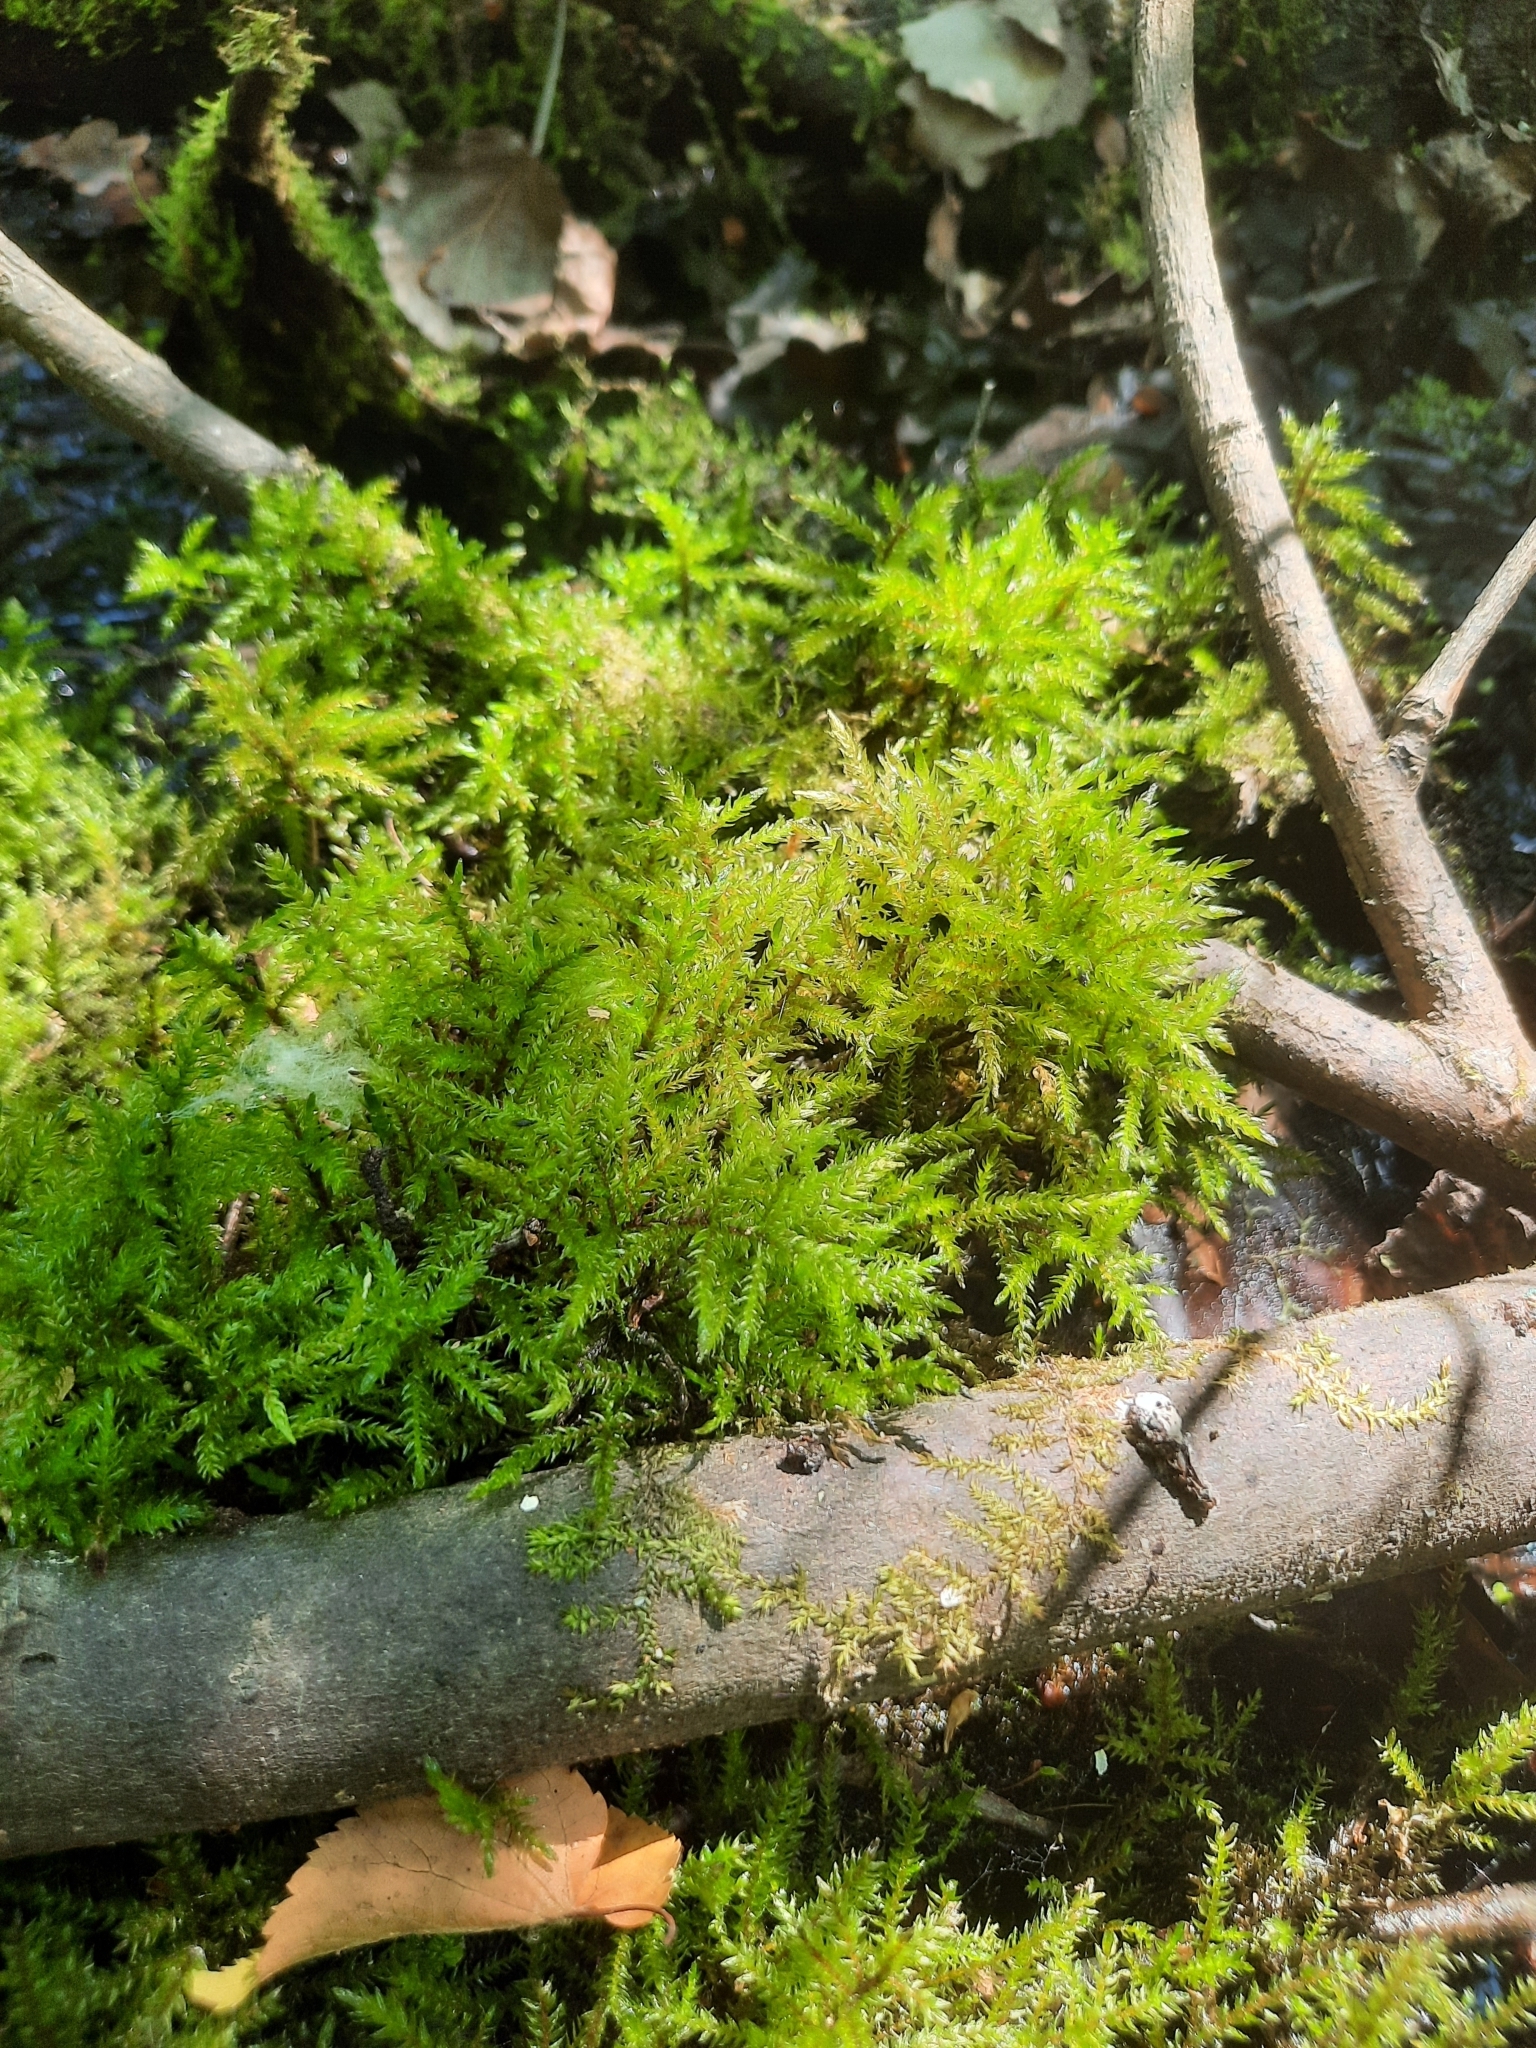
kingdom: Plantae
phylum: Bryophyta
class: Bryopsida
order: Hypnales
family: Climaciaceae
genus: Climacium
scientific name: Climacium dendroides
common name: Northern tree moss
